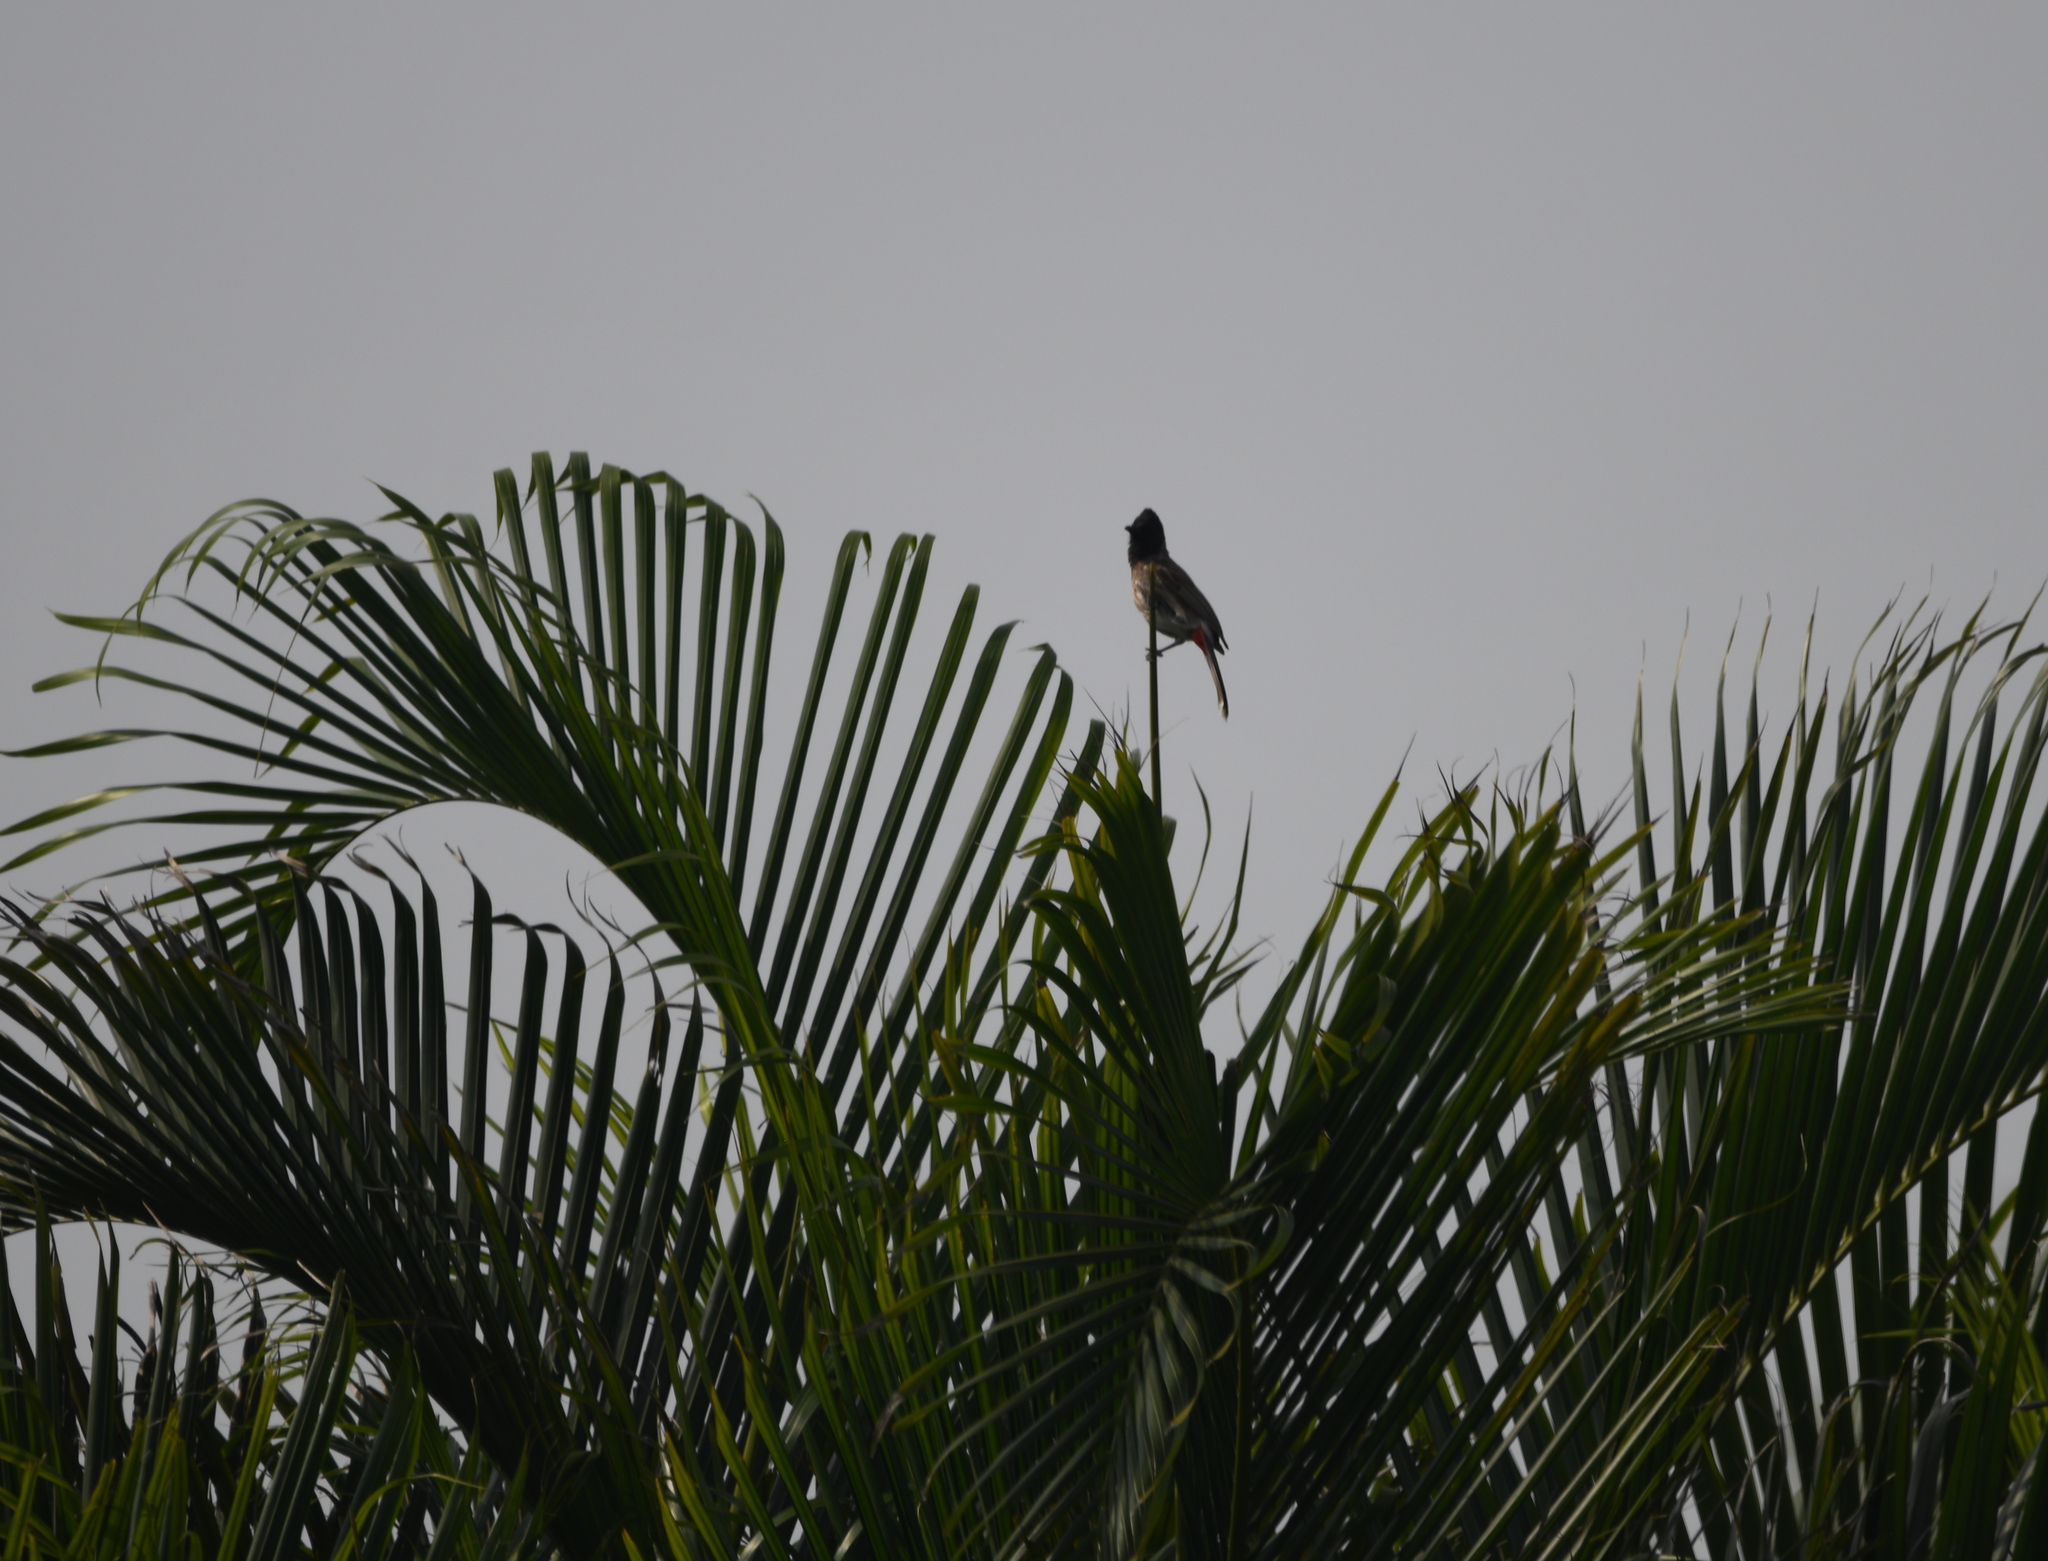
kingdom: Animalia
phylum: Chordata
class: Aves
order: Passeriformes
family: Pycnonotidae
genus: Pycnonotus
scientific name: Pycnonotus cafer
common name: Red-vented bulbul
